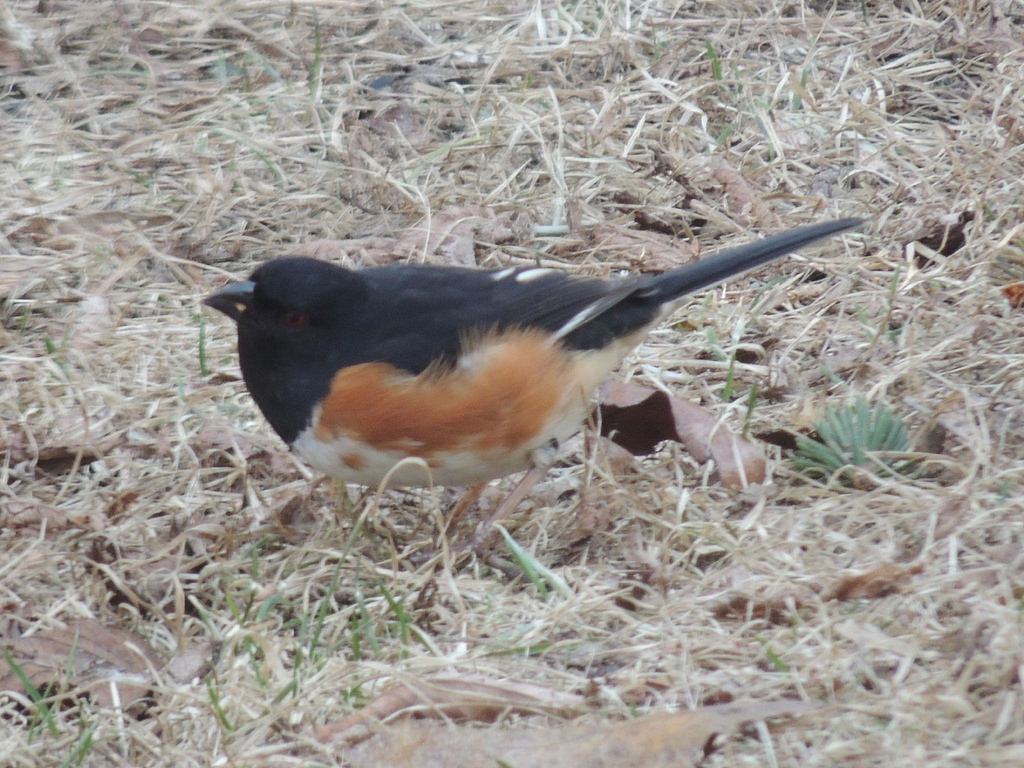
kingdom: Animalia
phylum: Chordata
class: Aves
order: Passeriformes
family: Passerellidae
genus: Pipilo
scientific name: Pipilo erythrophthalmus
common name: Eastern towhee
